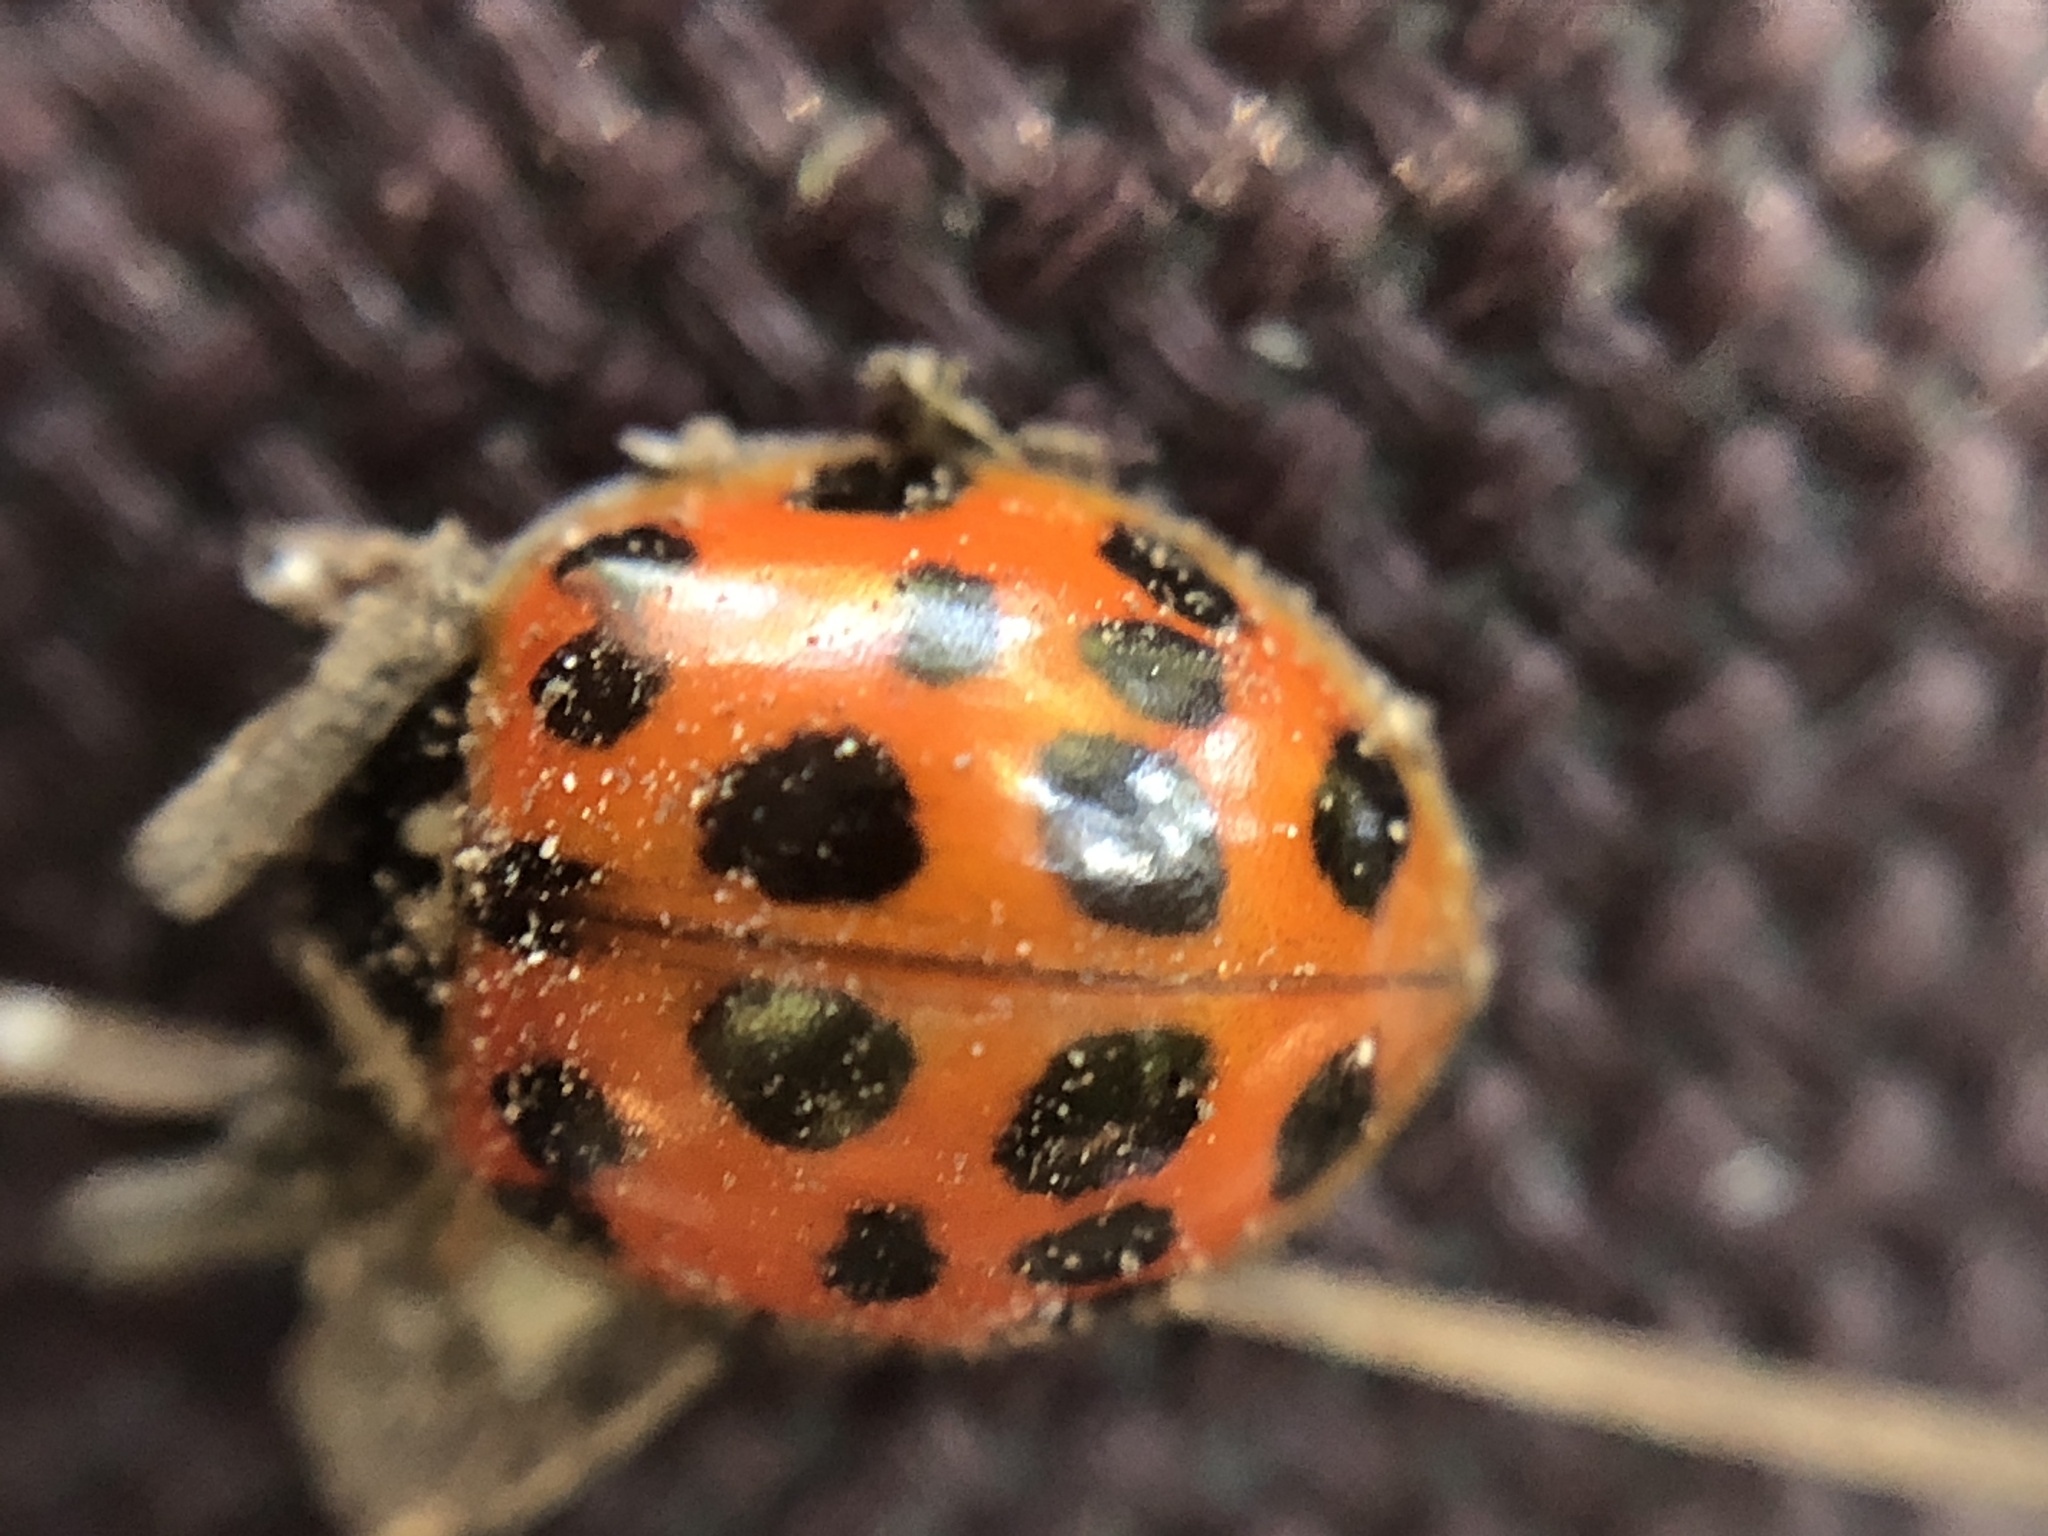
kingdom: Animalia
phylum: Arthropoda
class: Insecta
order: Coleoptera
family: Coccinellidae
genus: Harmonia
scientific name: Harmonia axyridis
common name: Harlequin ladybird
